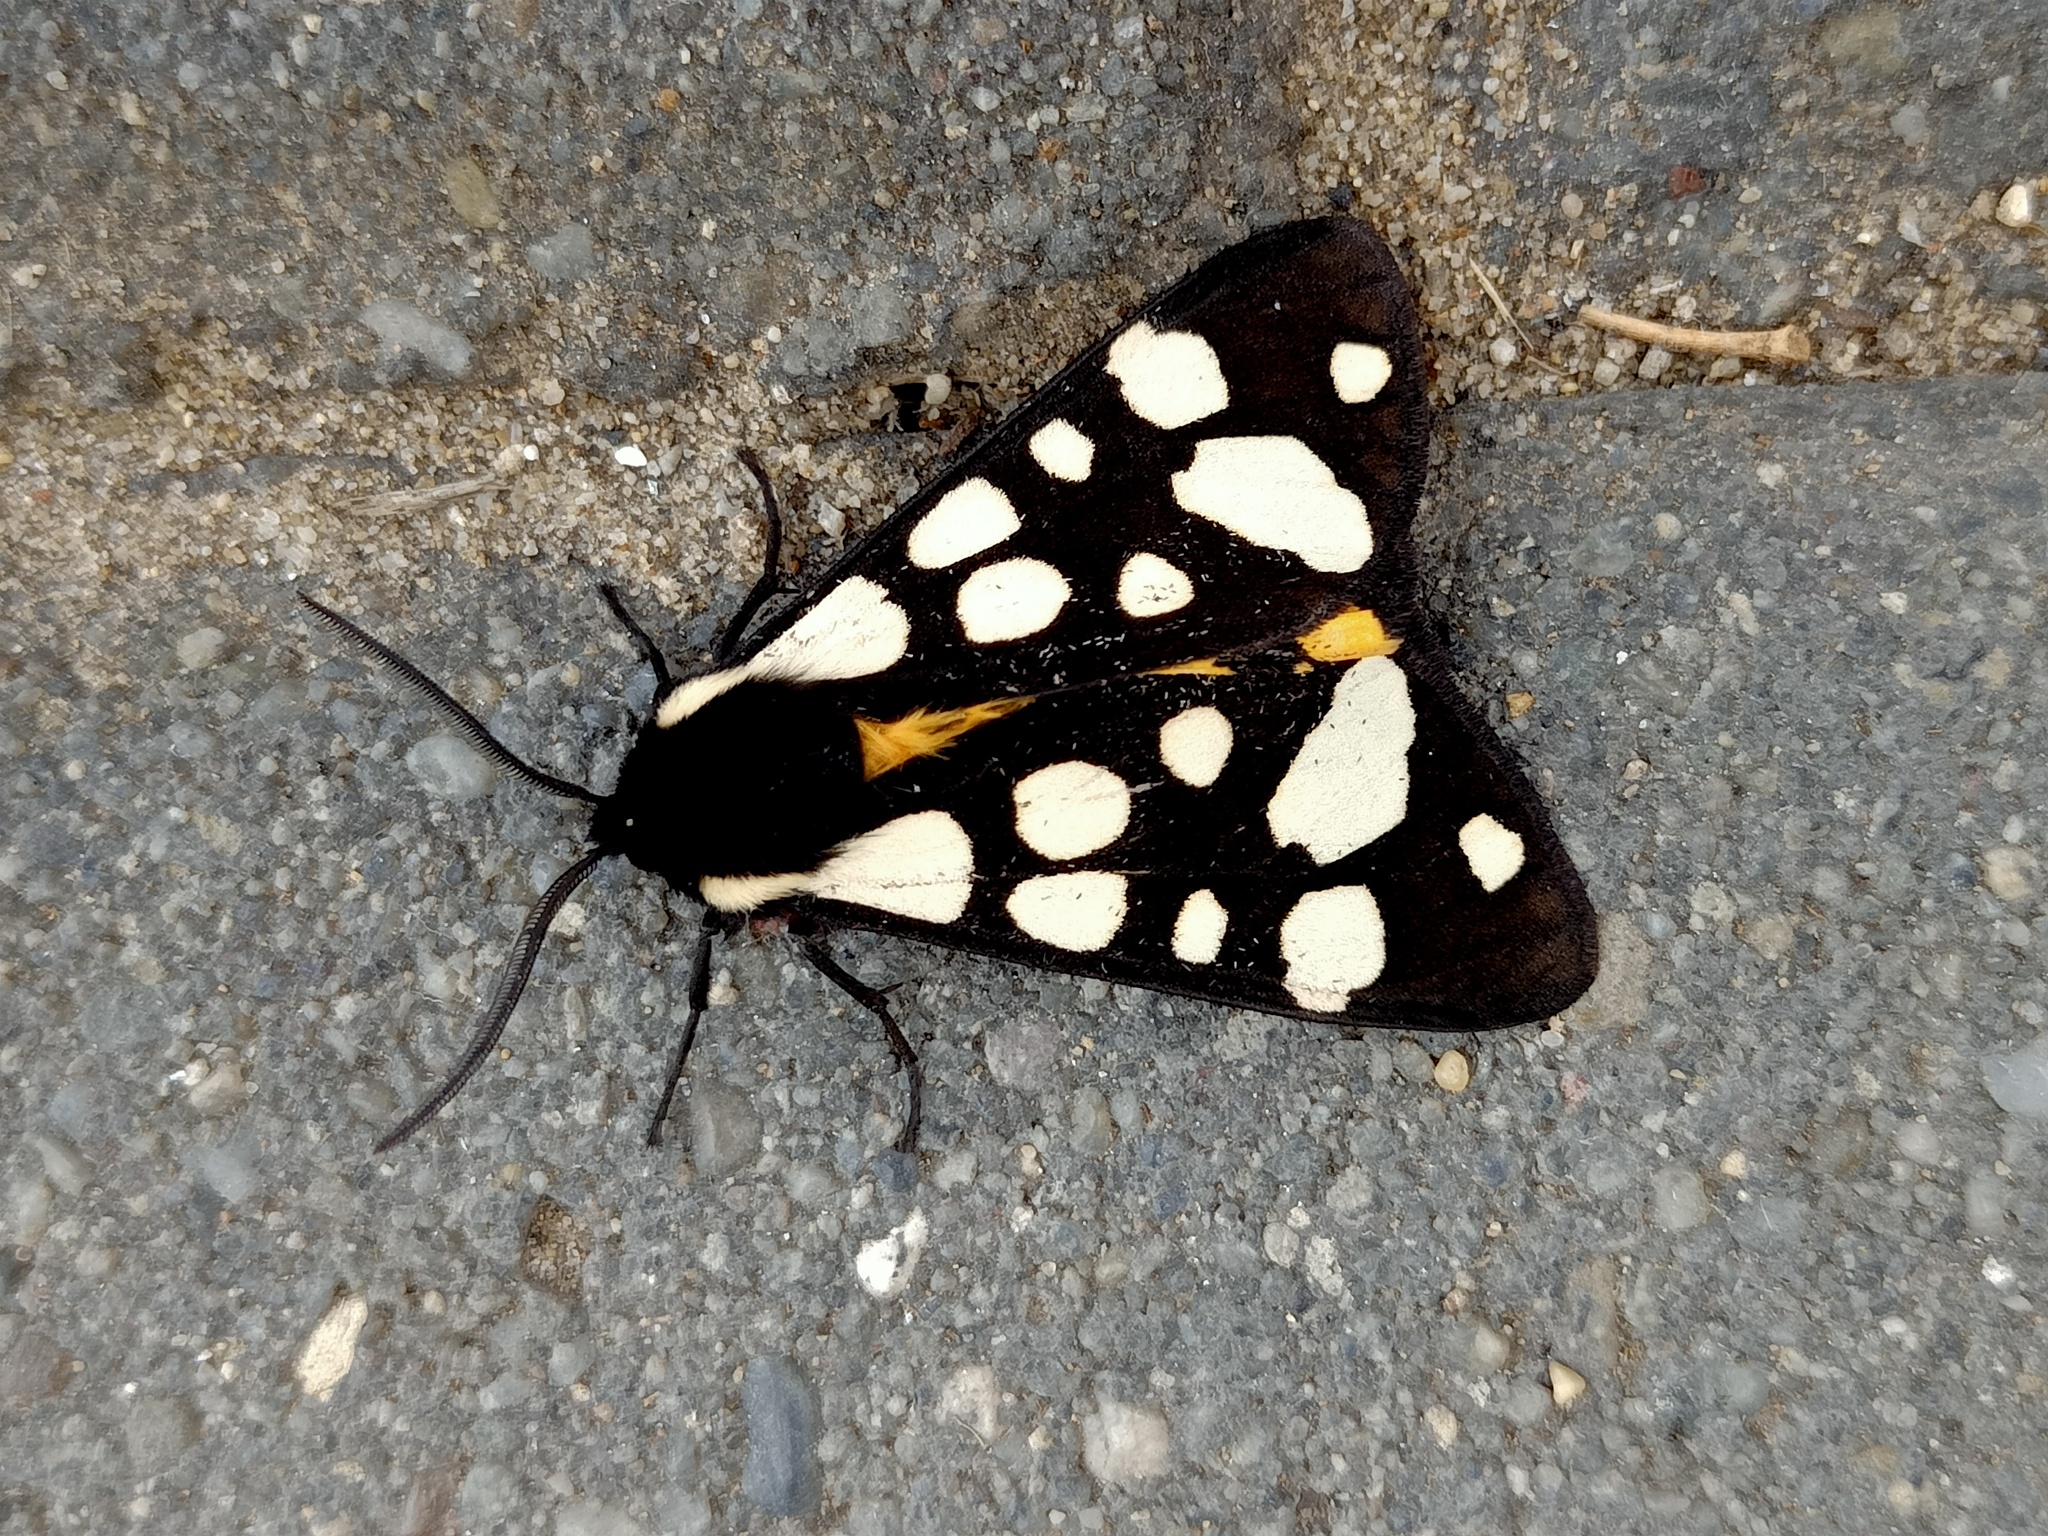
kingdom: Animalia
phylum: Arthropoda
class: Insecta
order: Lepidoptera
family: Erebidae
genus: Epicallia
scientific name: Epicallia villica
